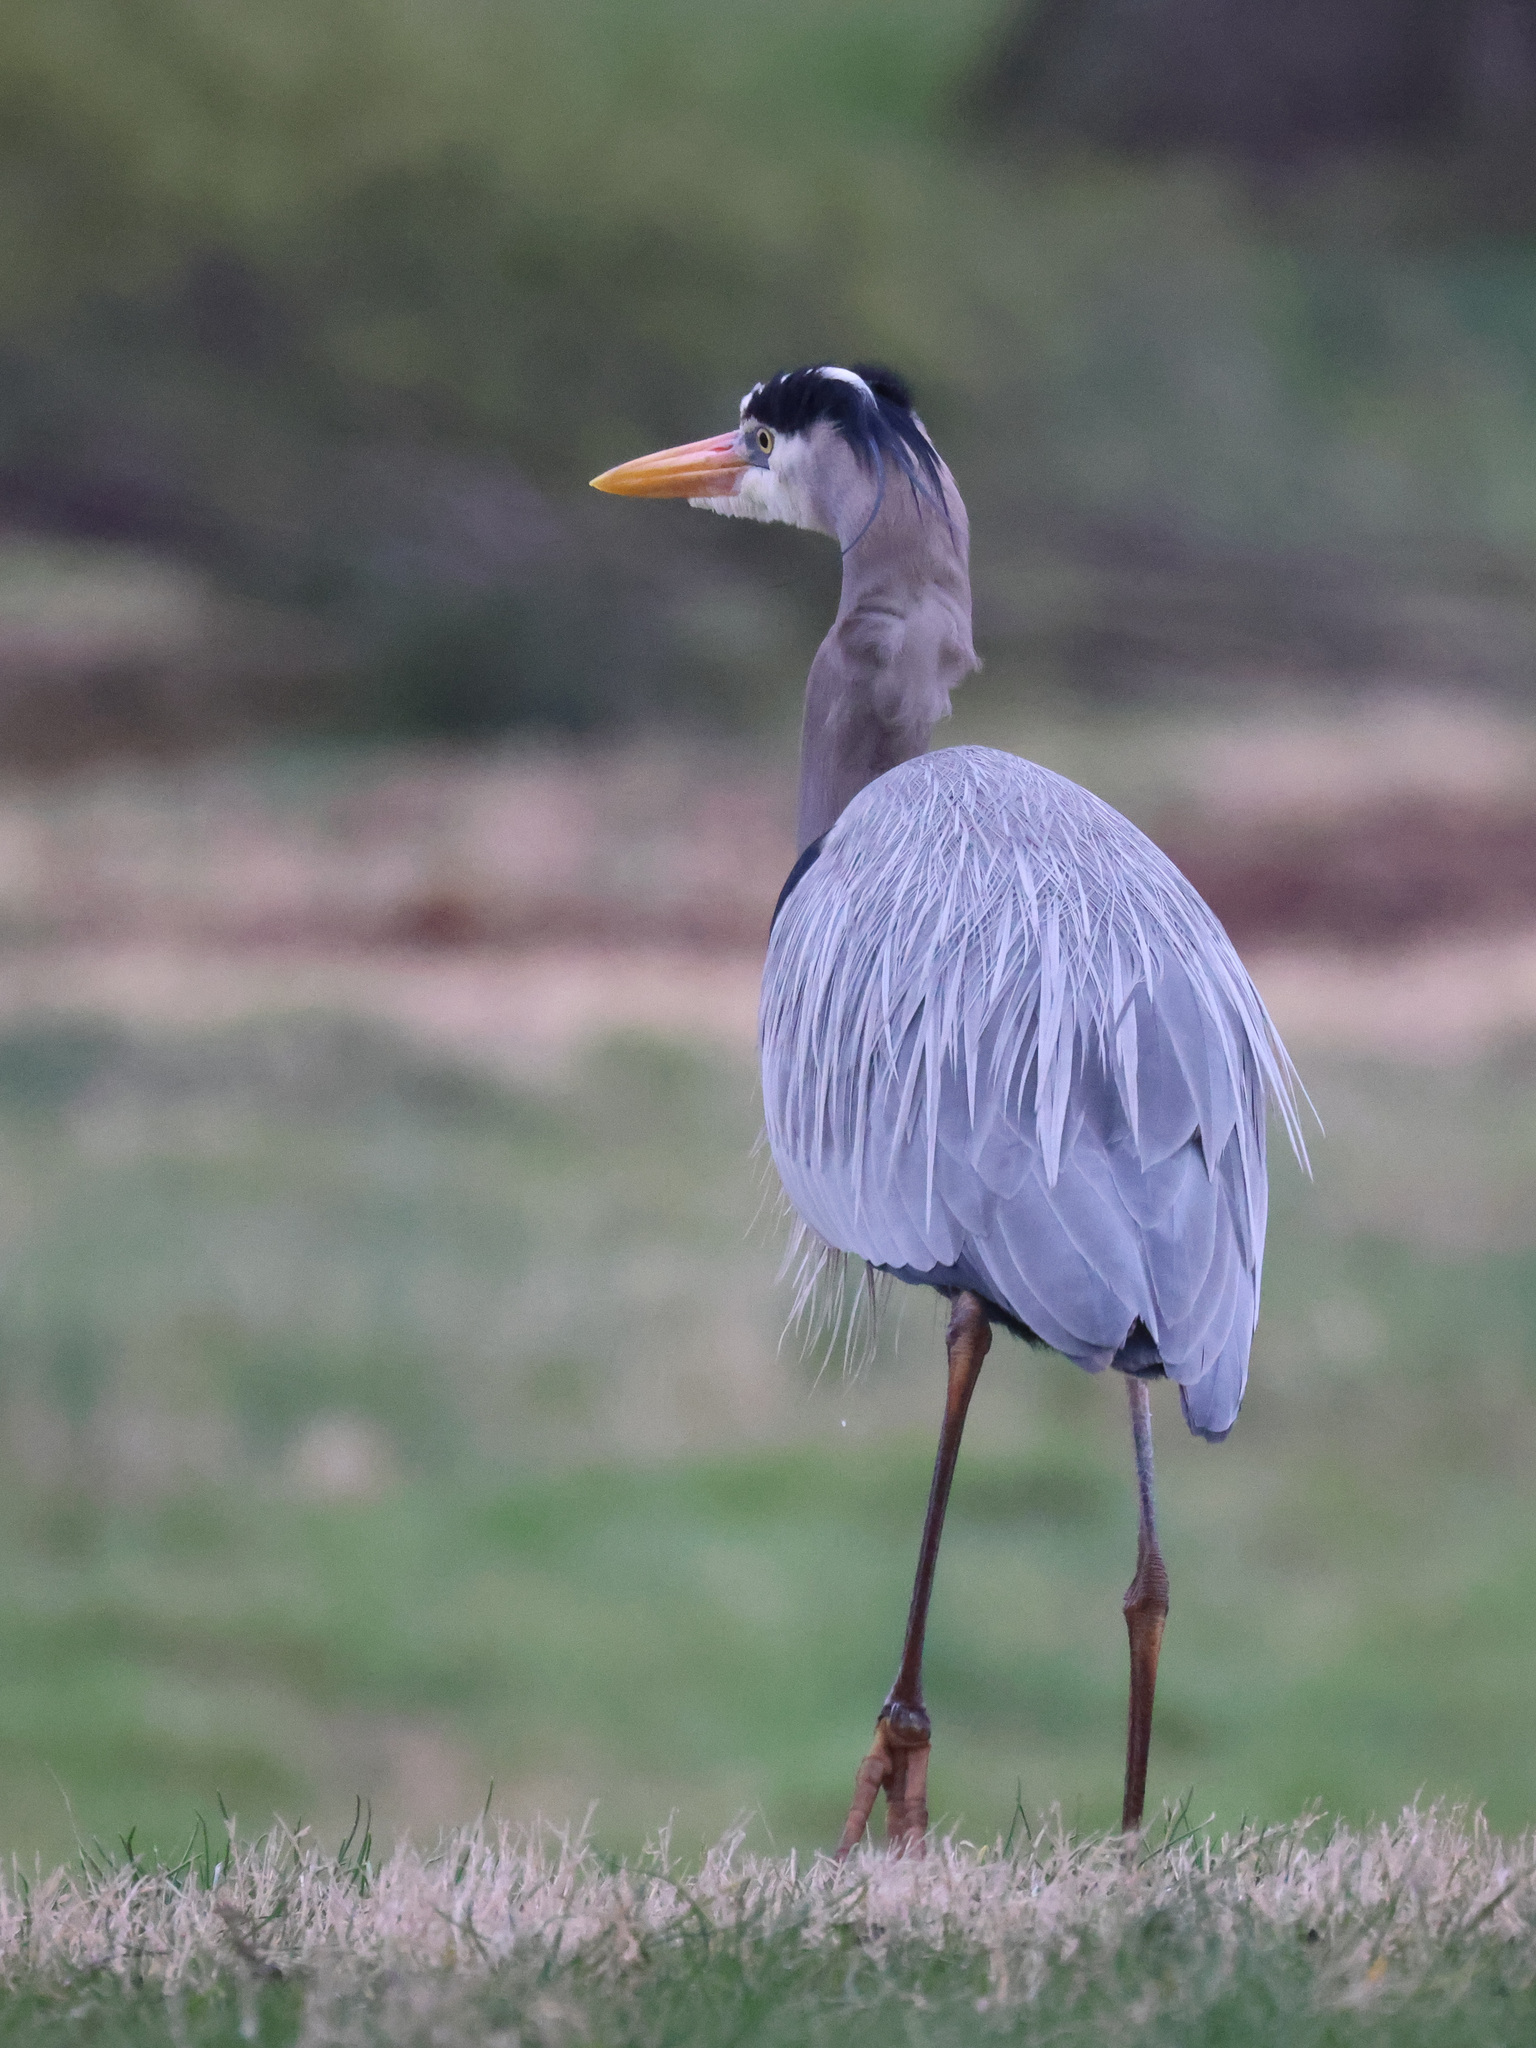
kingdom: Animalia
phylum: Chordata
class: Aves
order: Pelecaniformes
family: Ardeidae
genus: Ardea
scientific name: Ardea herodias
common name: Great blue heron
